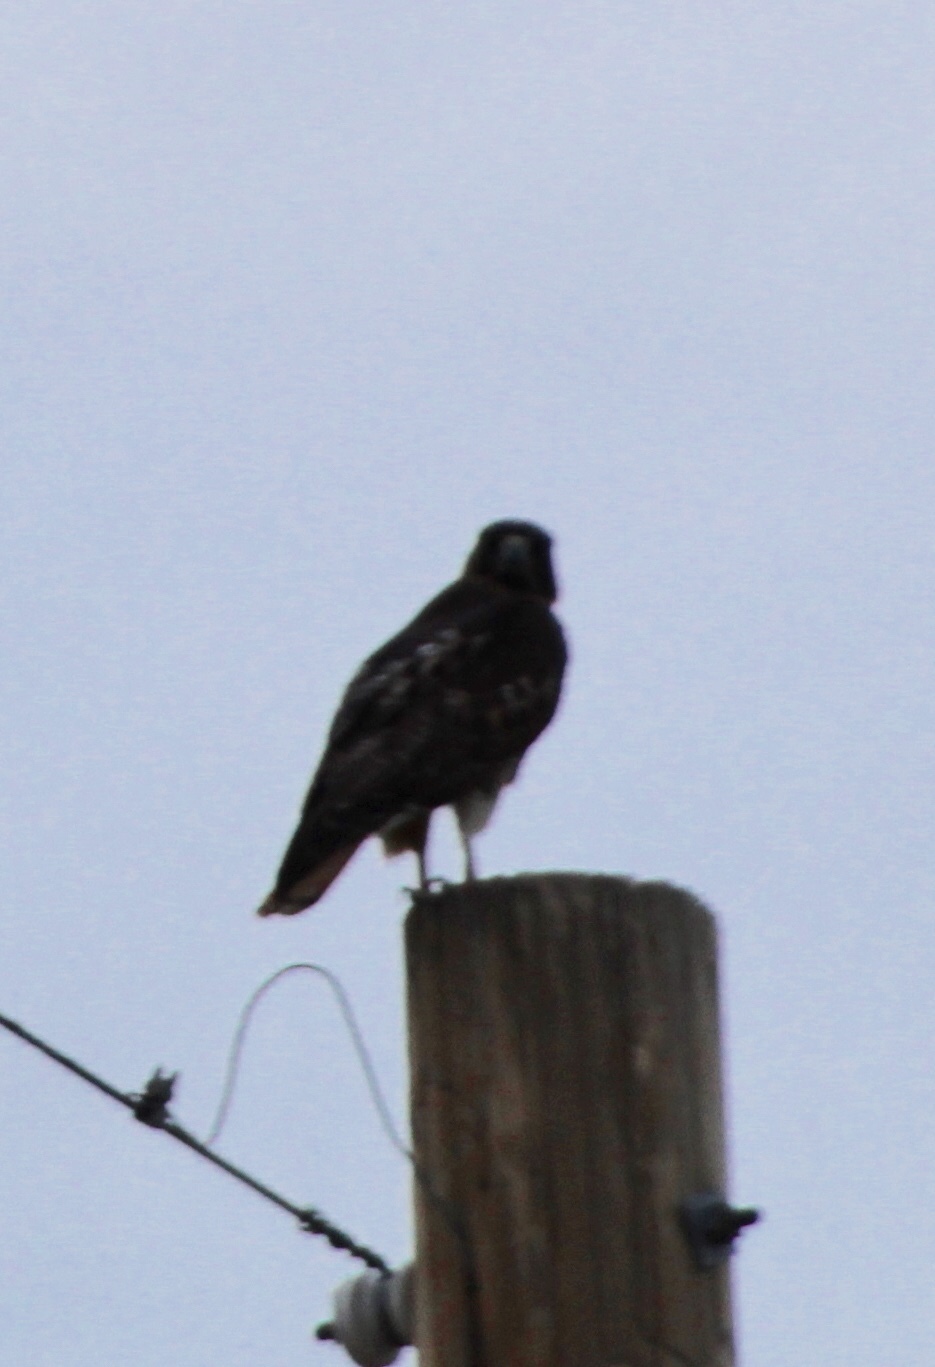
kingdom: Animalia
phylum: Chordata
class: Aves
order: Accipitriformes
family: Accipitridae
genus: Buteo
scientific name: Buteo jamaicensis
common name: Red-tailed hawk
